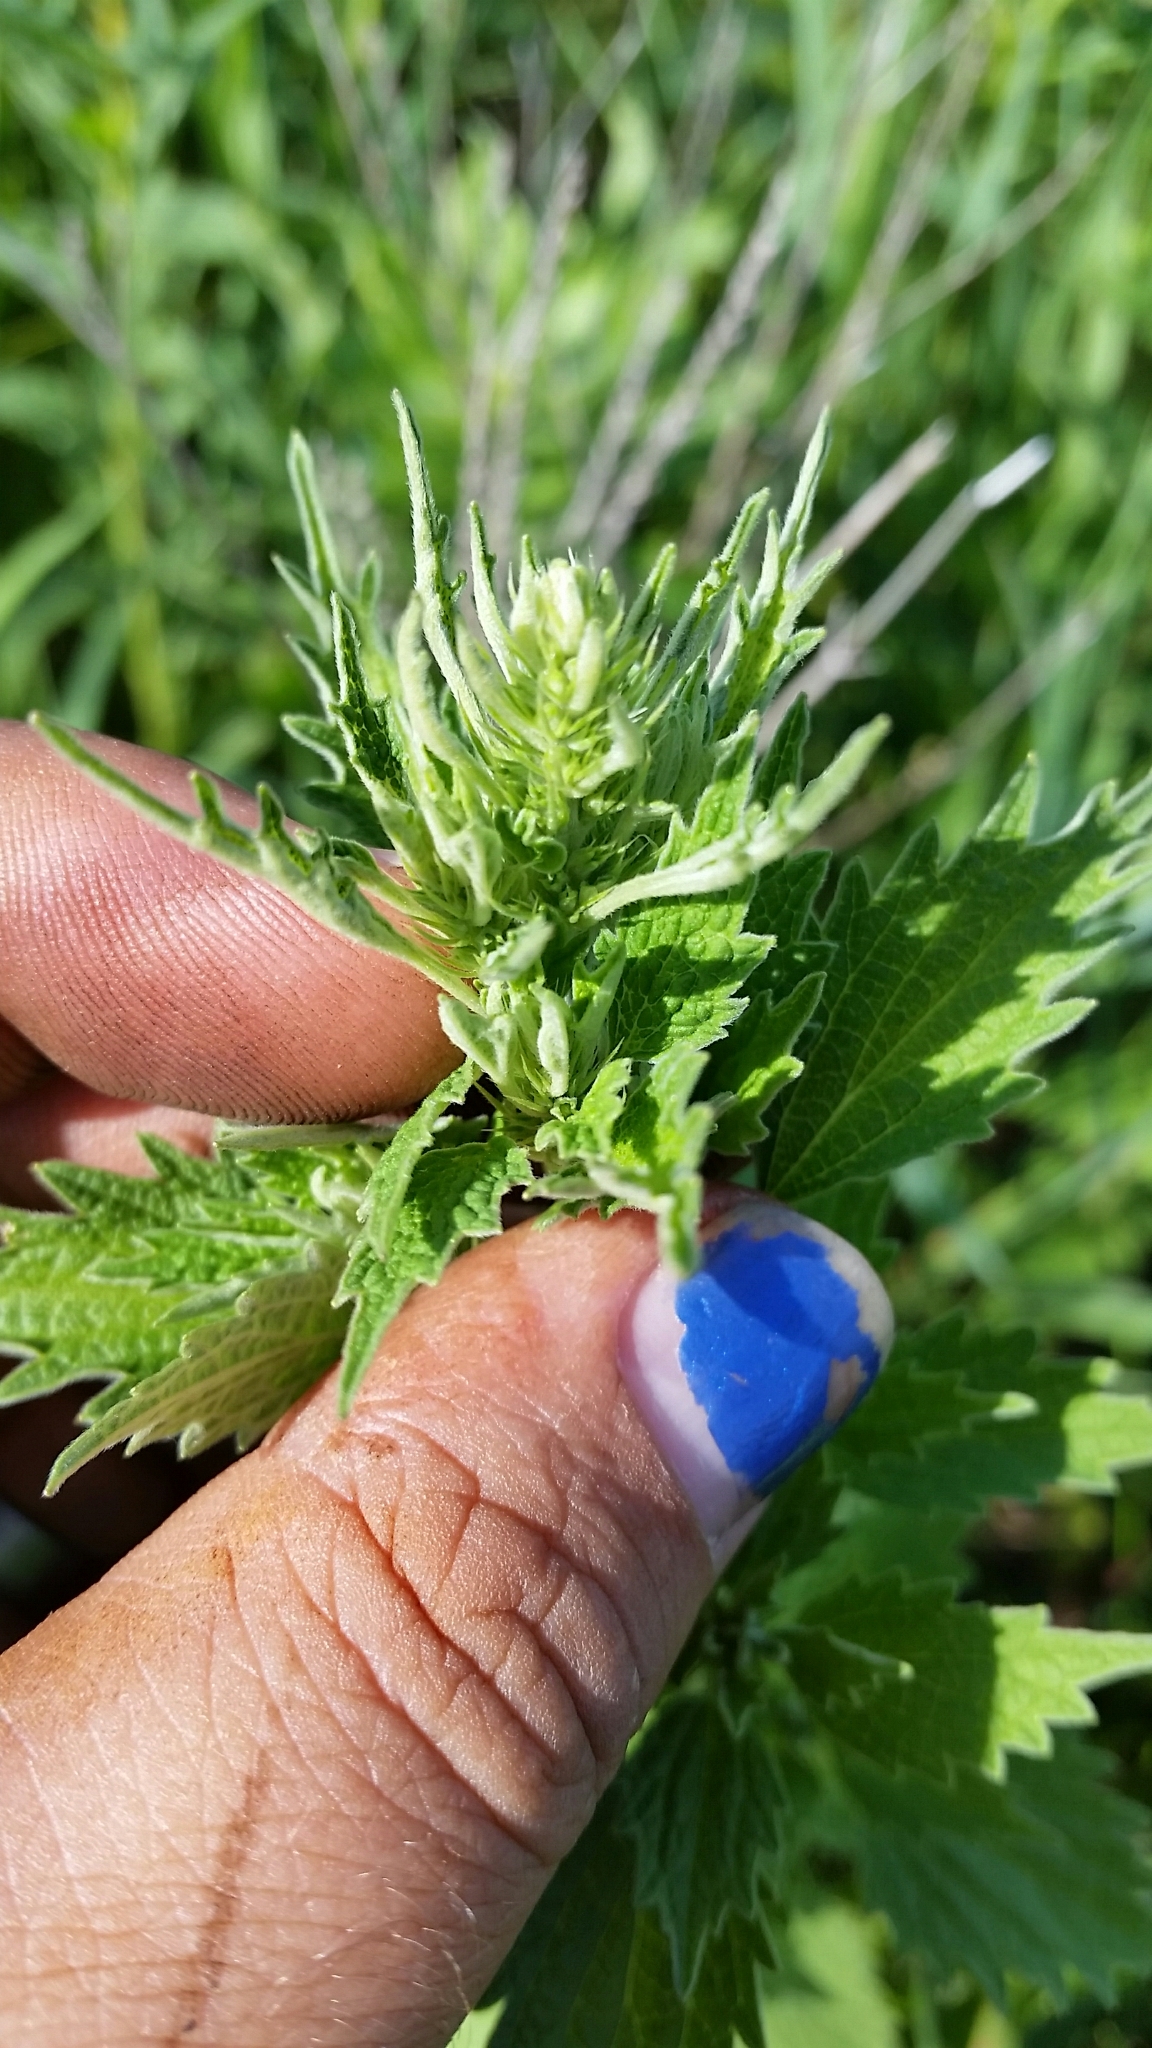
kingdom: Plantae
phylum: Tracheophyta
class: Magnoliopsida
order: Lamiales
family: Lamiaceae
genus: Chaiturus
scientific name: Chaiturus marrubiastrum
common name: Lion's tail
